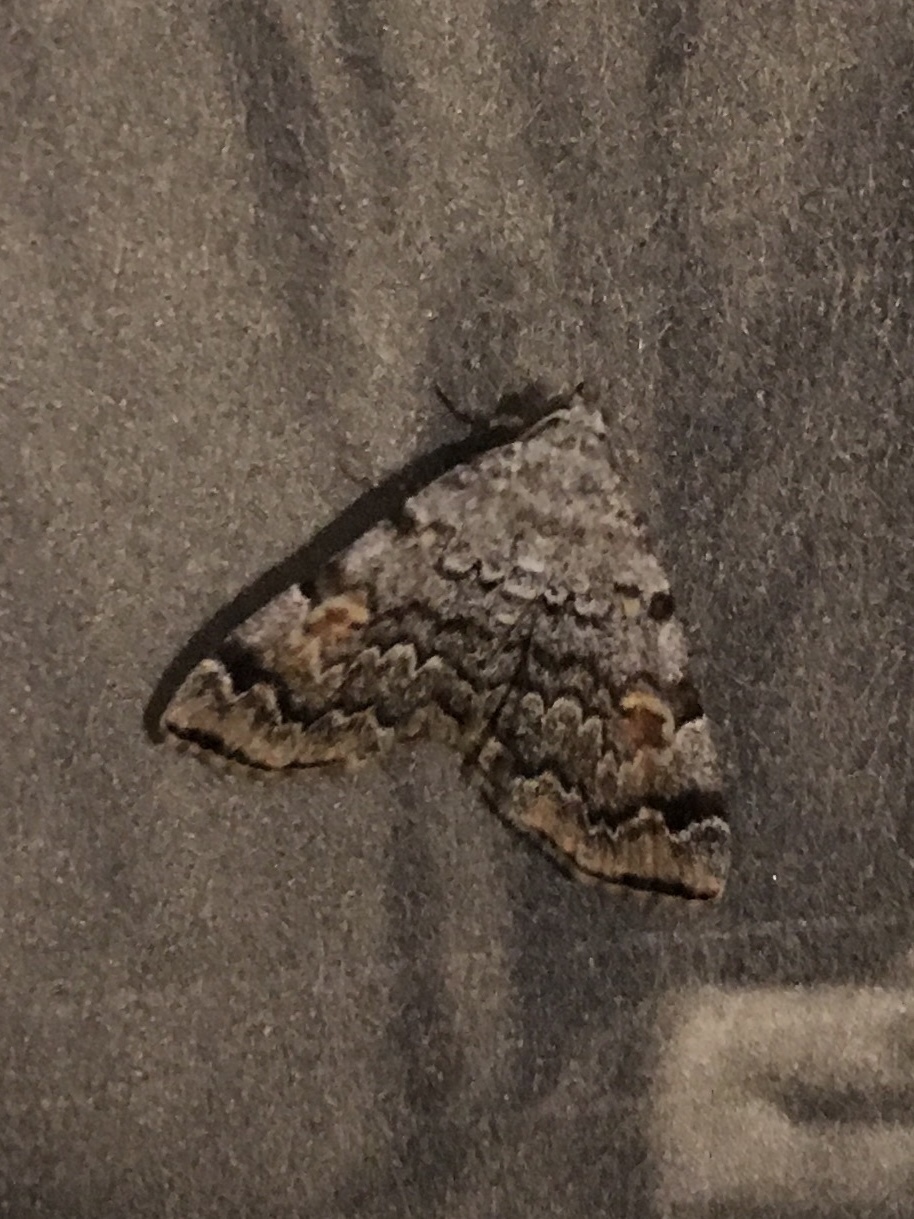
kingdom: Animalia
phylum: Arthropoda
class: Insecta
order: Lepidoptera
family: Erebidae
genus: Idia
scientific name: Idia americalis
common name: American idia moth
